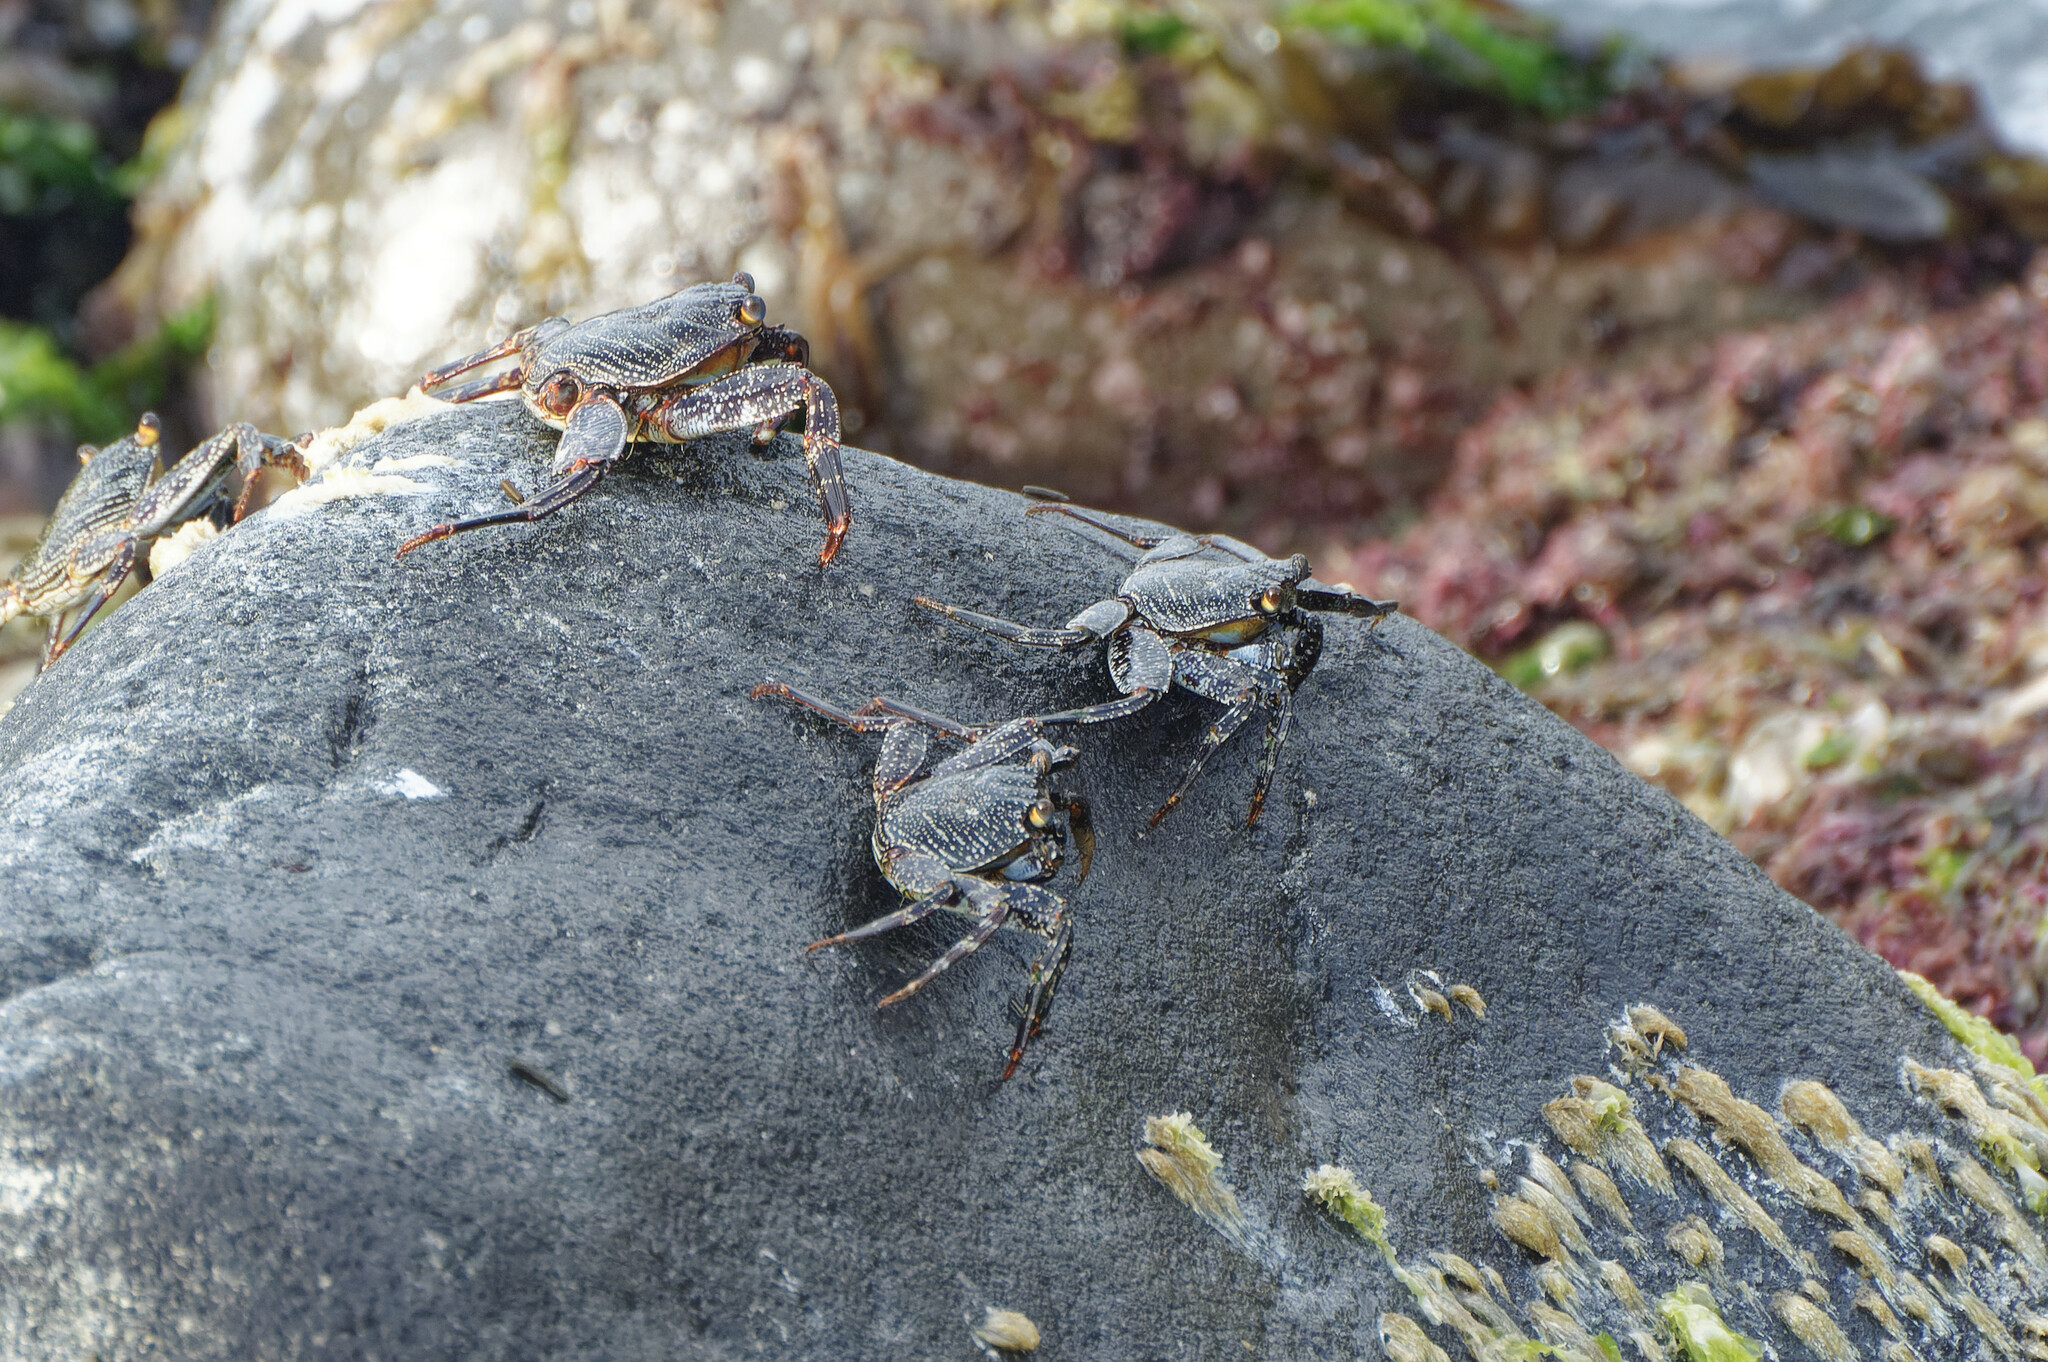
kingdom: Animalia
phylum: Arthropoda
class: Malacostraca
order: Decapoda
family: Grapsidae
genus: Grapsus
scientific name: Grapsus grapsus
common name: Sally lightfoot
